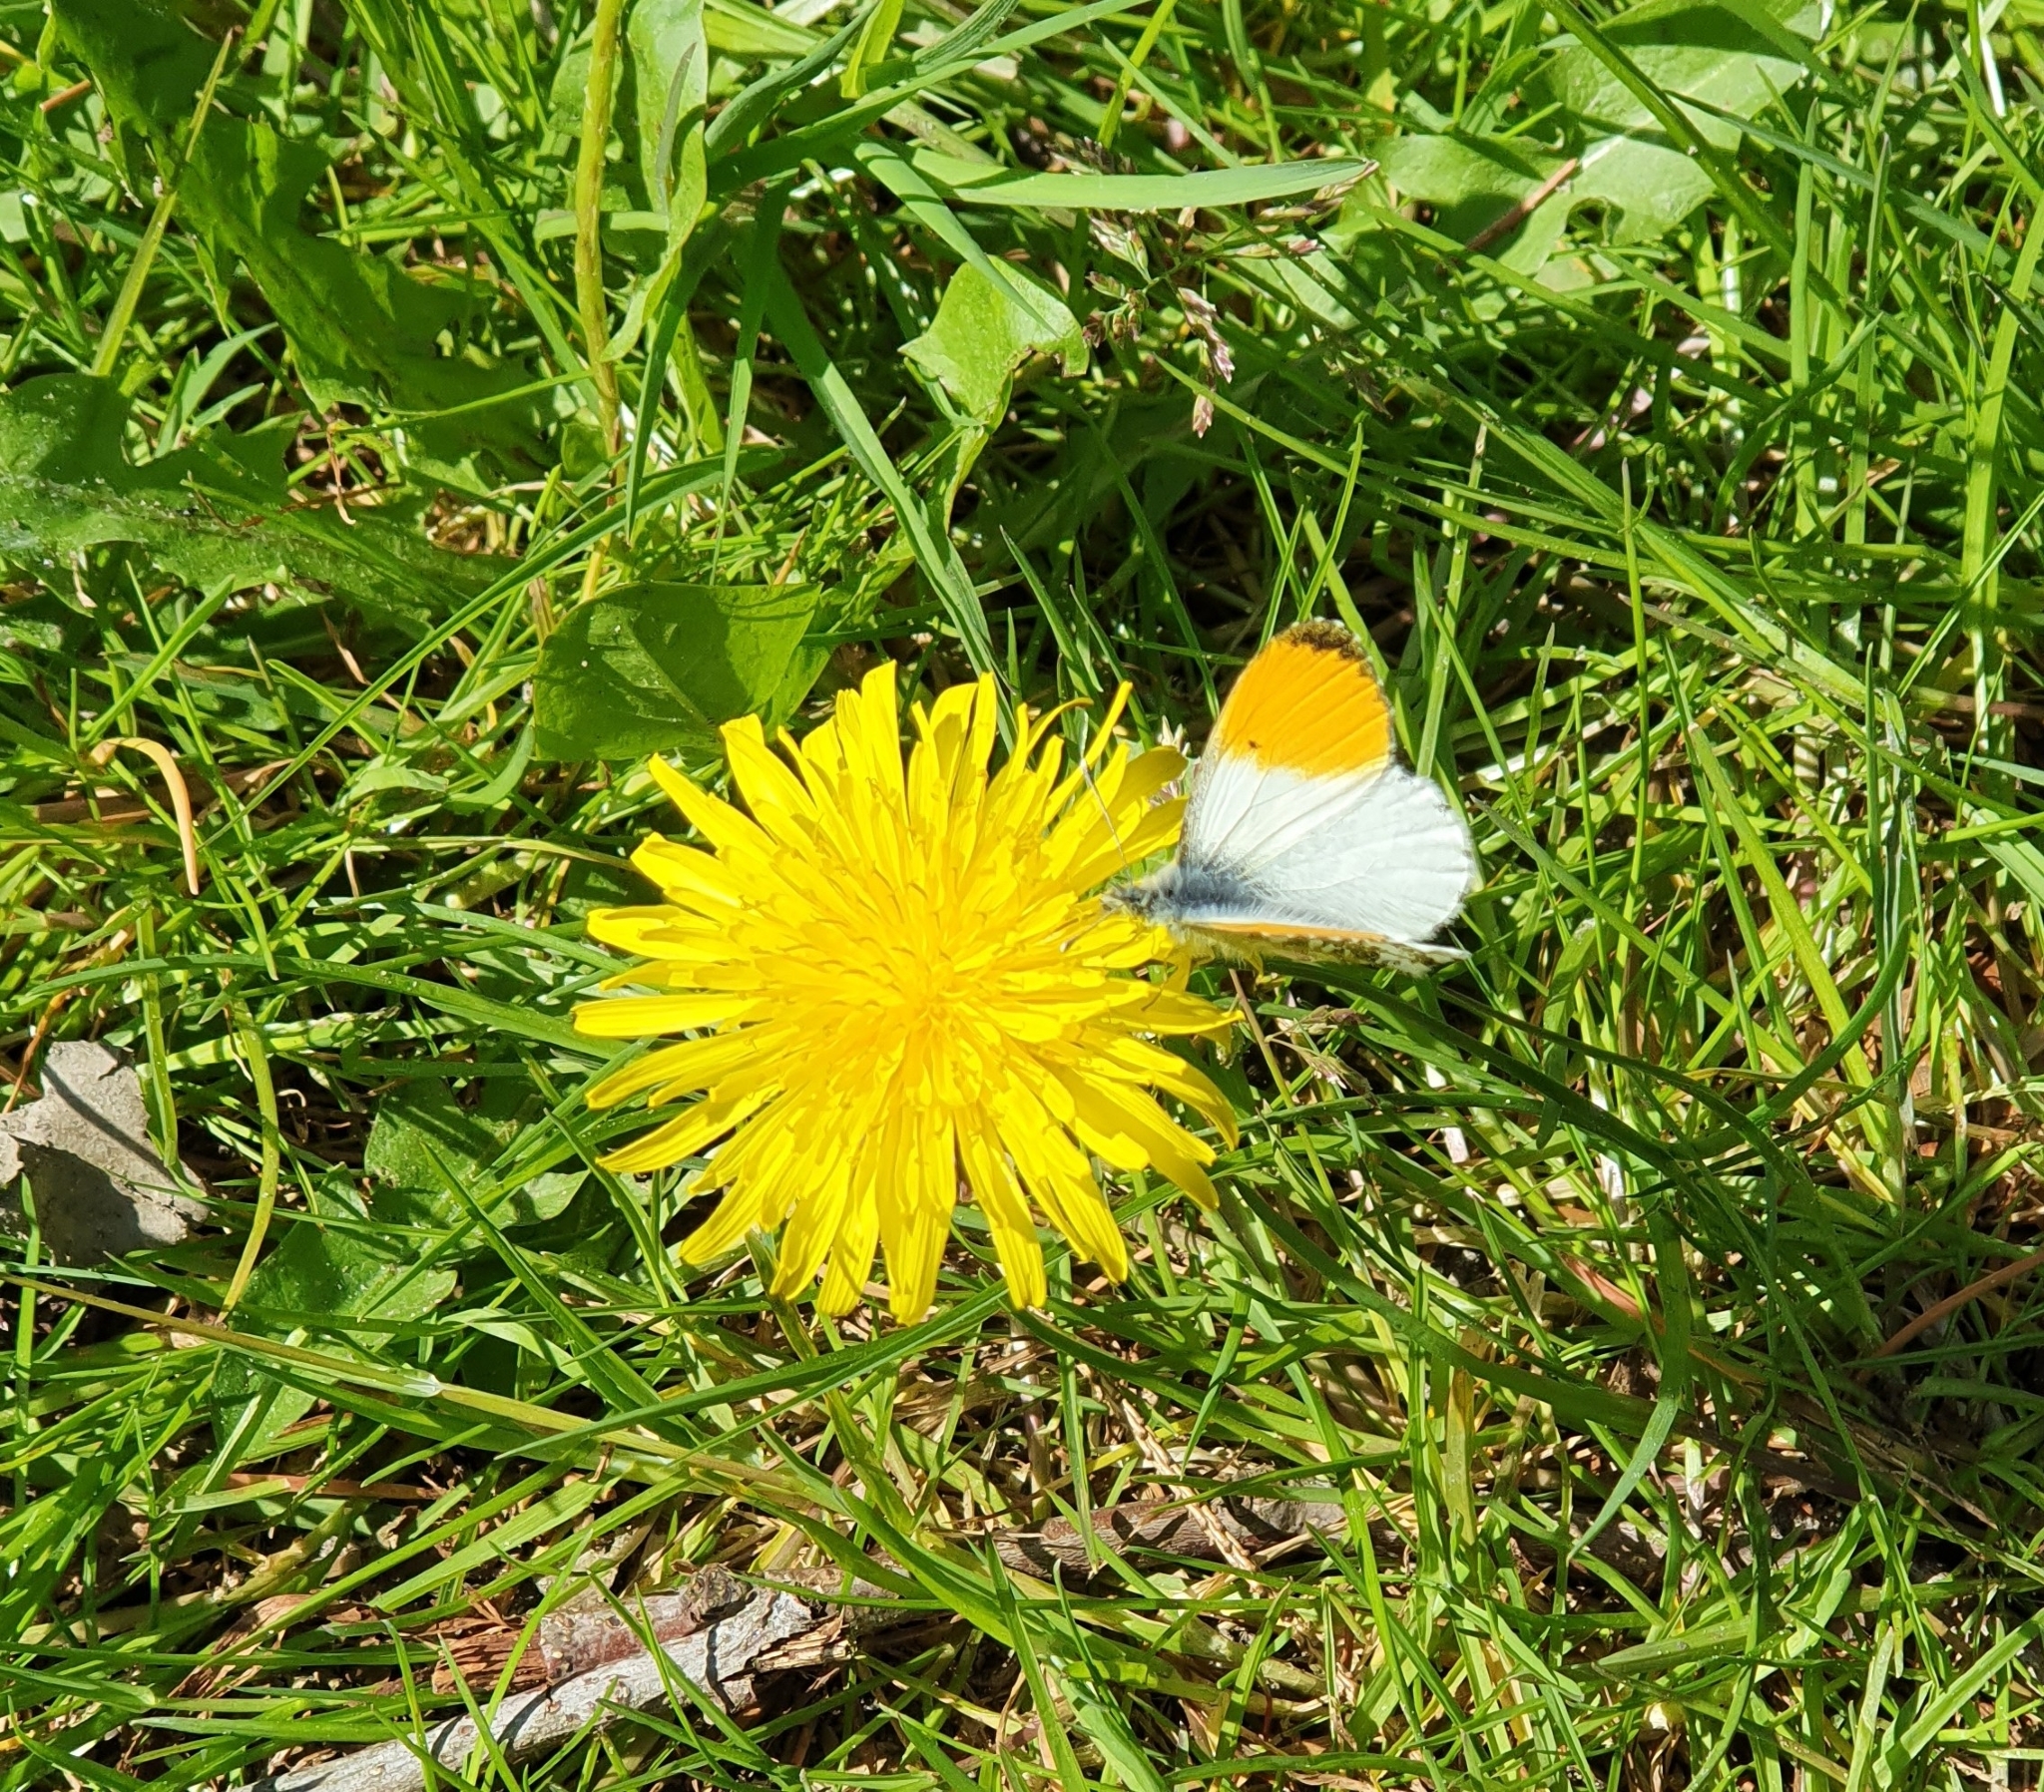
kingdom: Animalia
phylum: Arthropoda
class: Insecta
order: Lepidoptera
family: Pieridae
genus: Anthocharis
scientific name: Anthocharis cardamines
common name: Orange-tip
